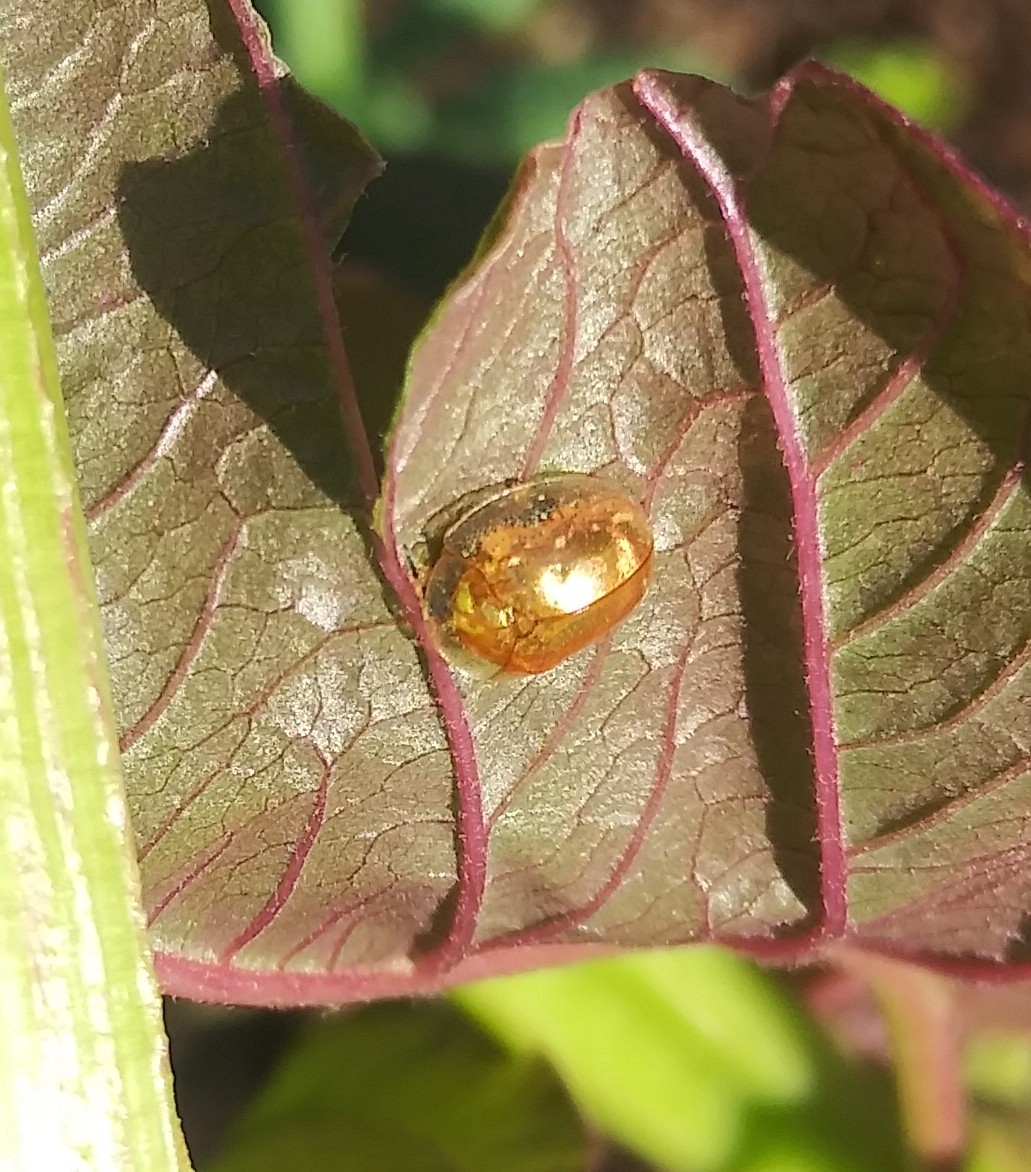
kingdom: Animalia
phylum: Arthropoda
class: Insecta
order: Coleoptera
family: Chrysomelidae
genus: Charidotella
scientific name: Charidotella sexpunctata
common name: Golden tortoise beetle
